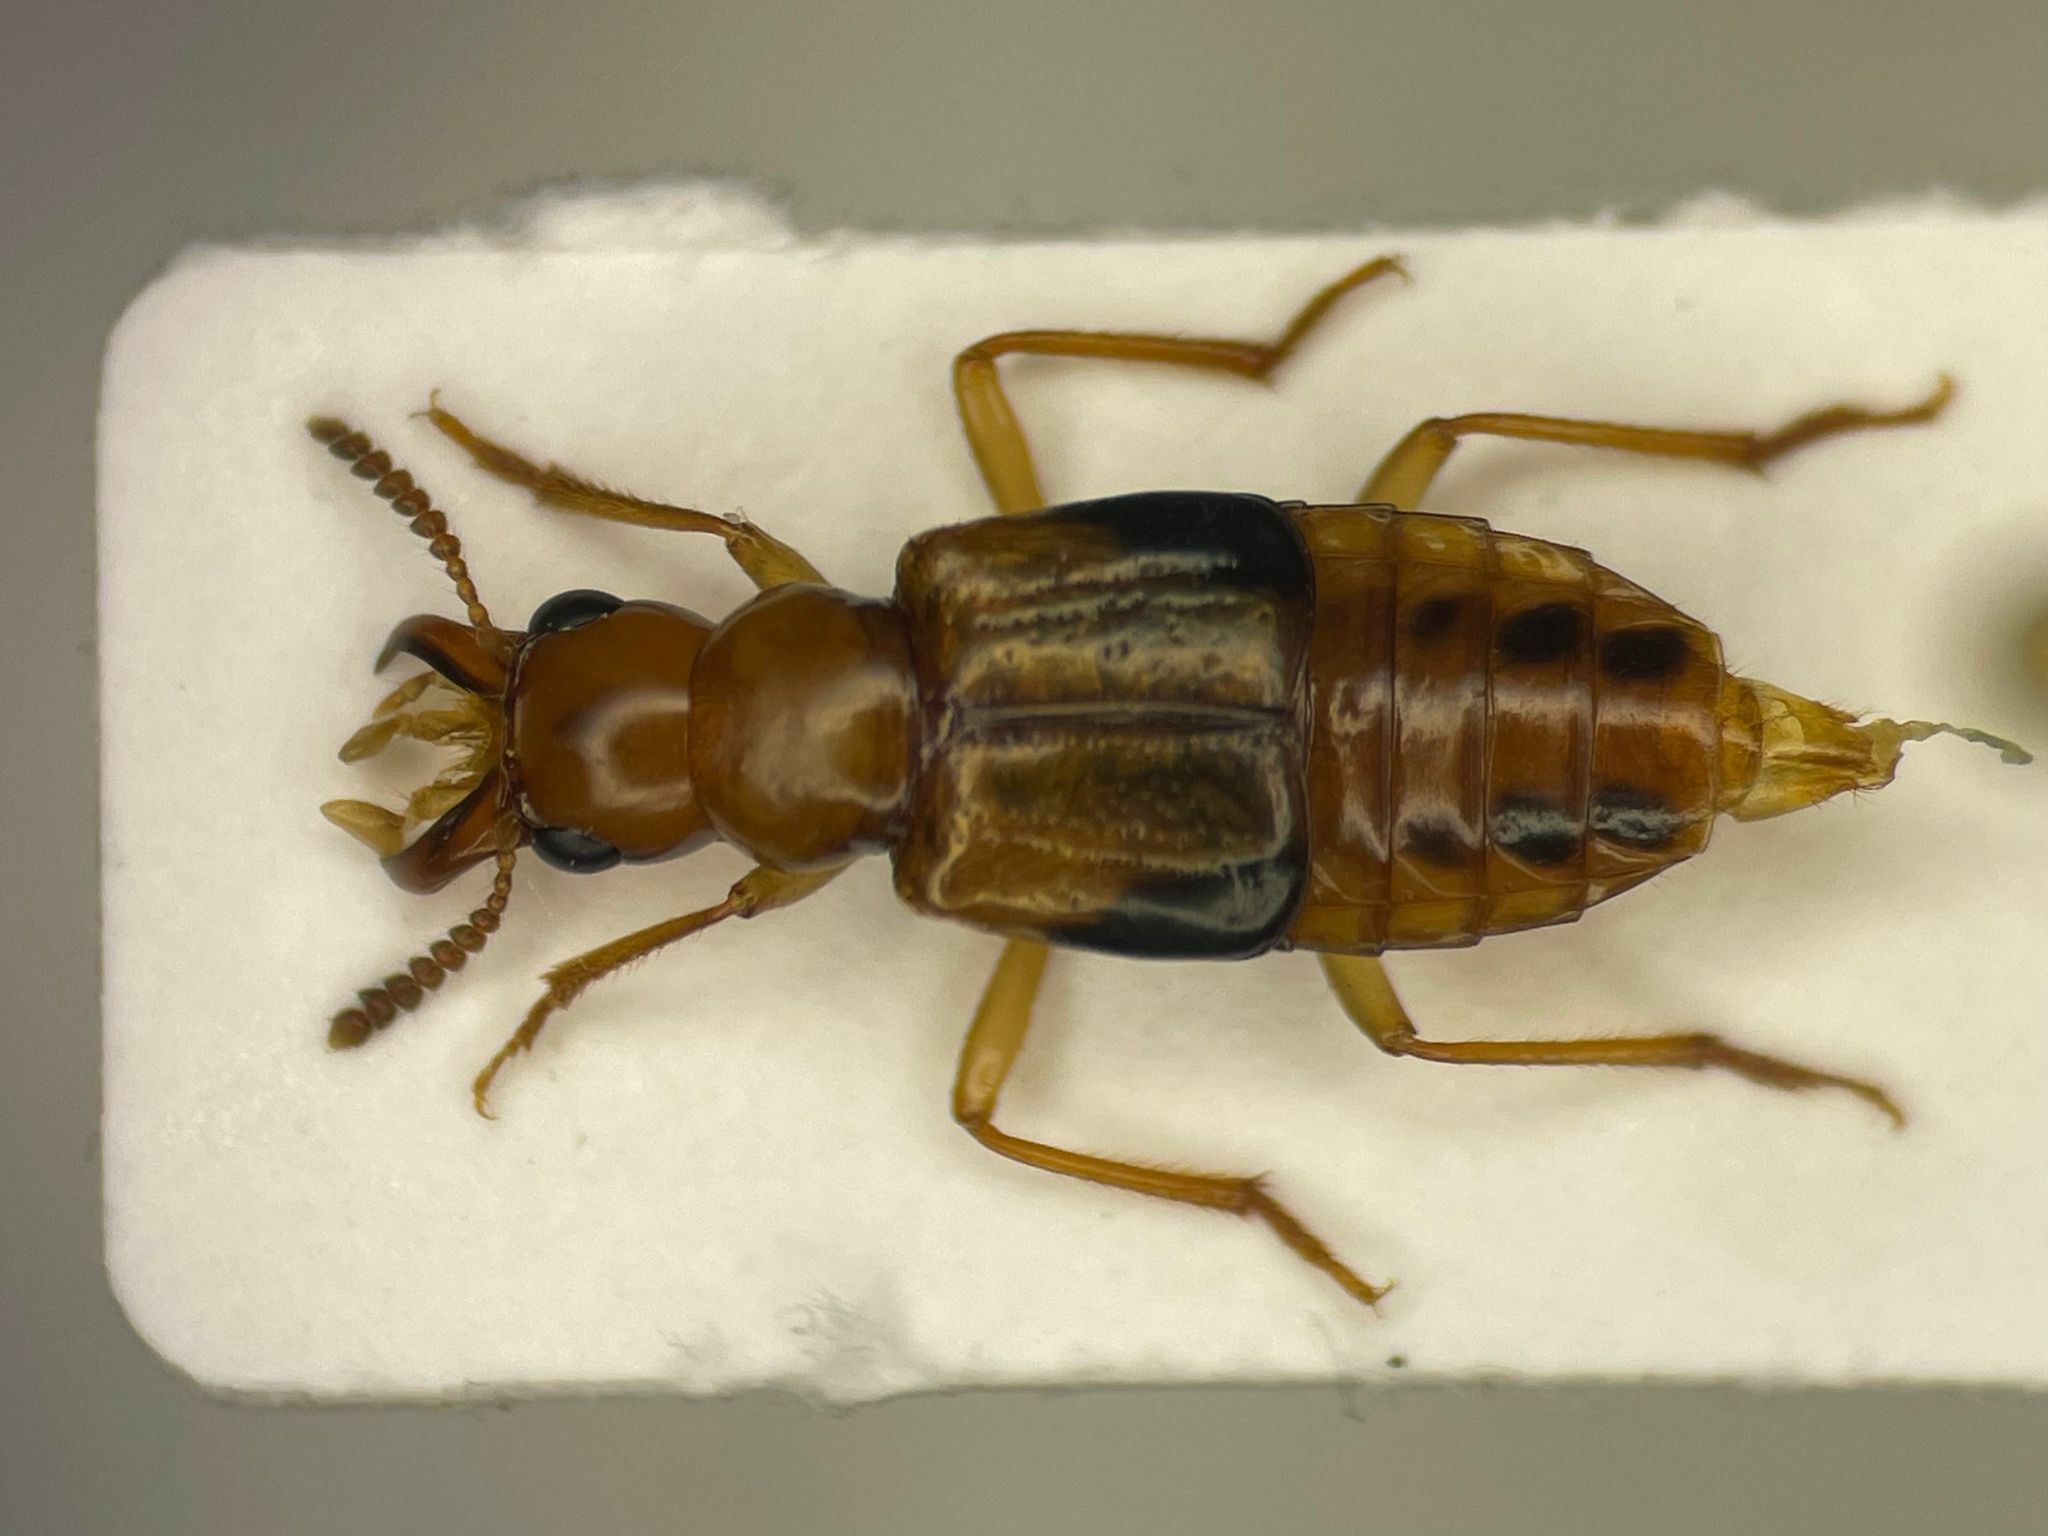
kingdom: Animalia
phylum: Arthropoda
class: Insecta
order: Coleoptera
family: Staphylinidae
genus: Pseudoxyporus
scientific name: Pseudoxyporus lateralis
